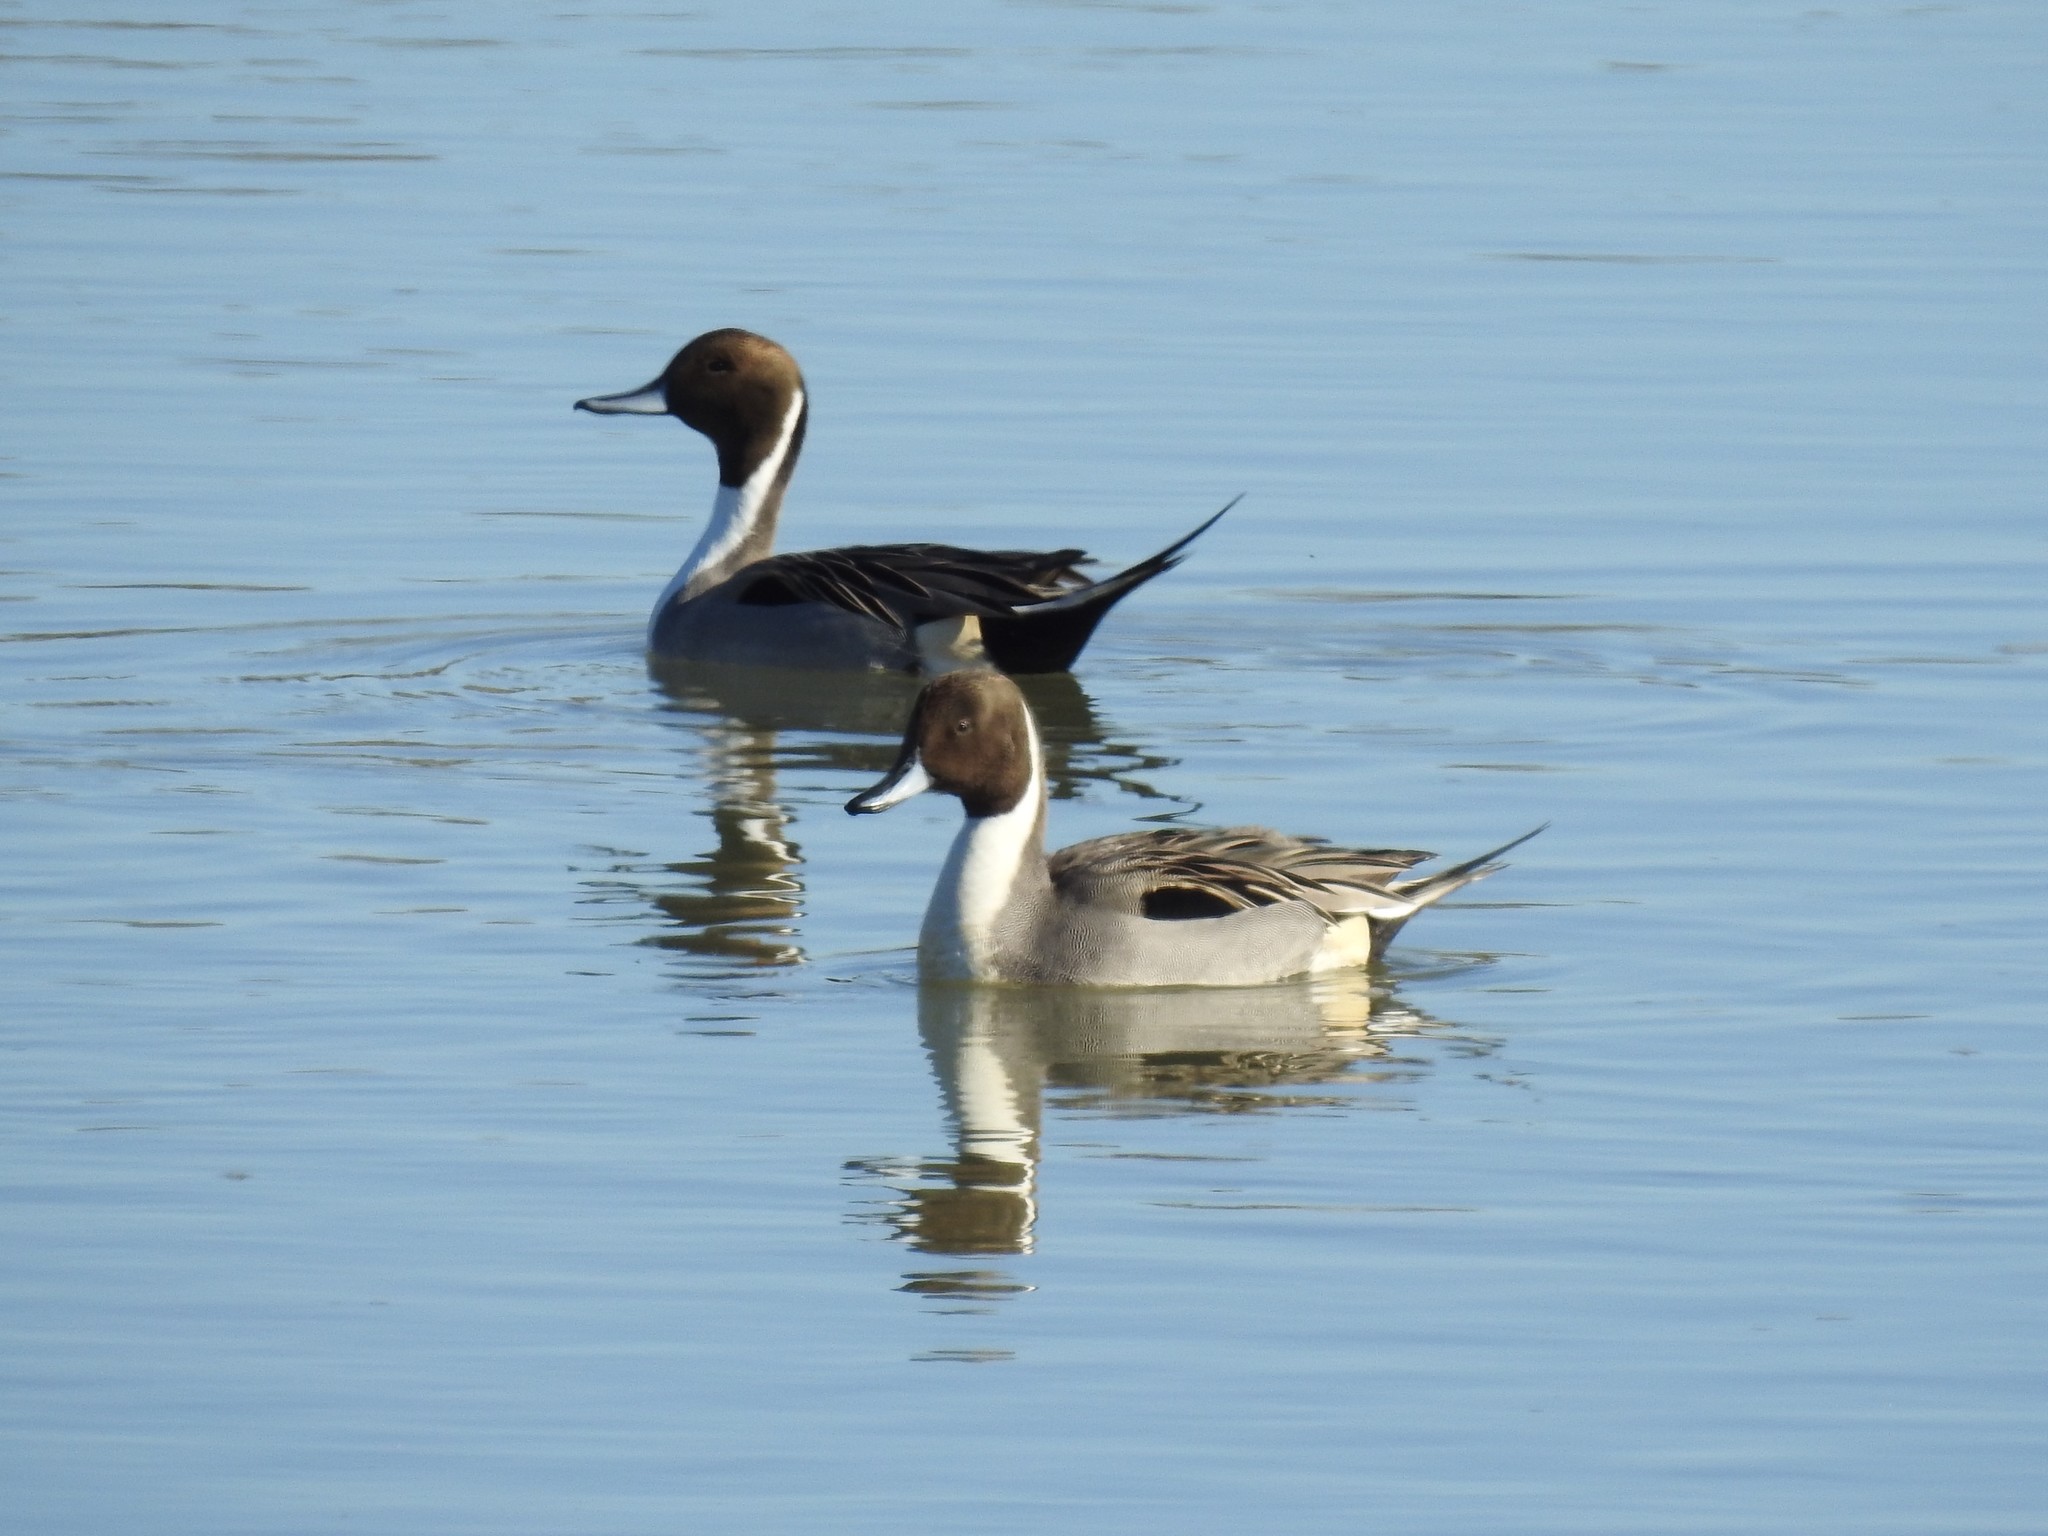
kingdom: Animalia
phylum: Chordata
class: Aves
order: Anseriformes
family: Anatidae
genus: Anas
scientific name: Anas acuta
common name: Northern pintail
